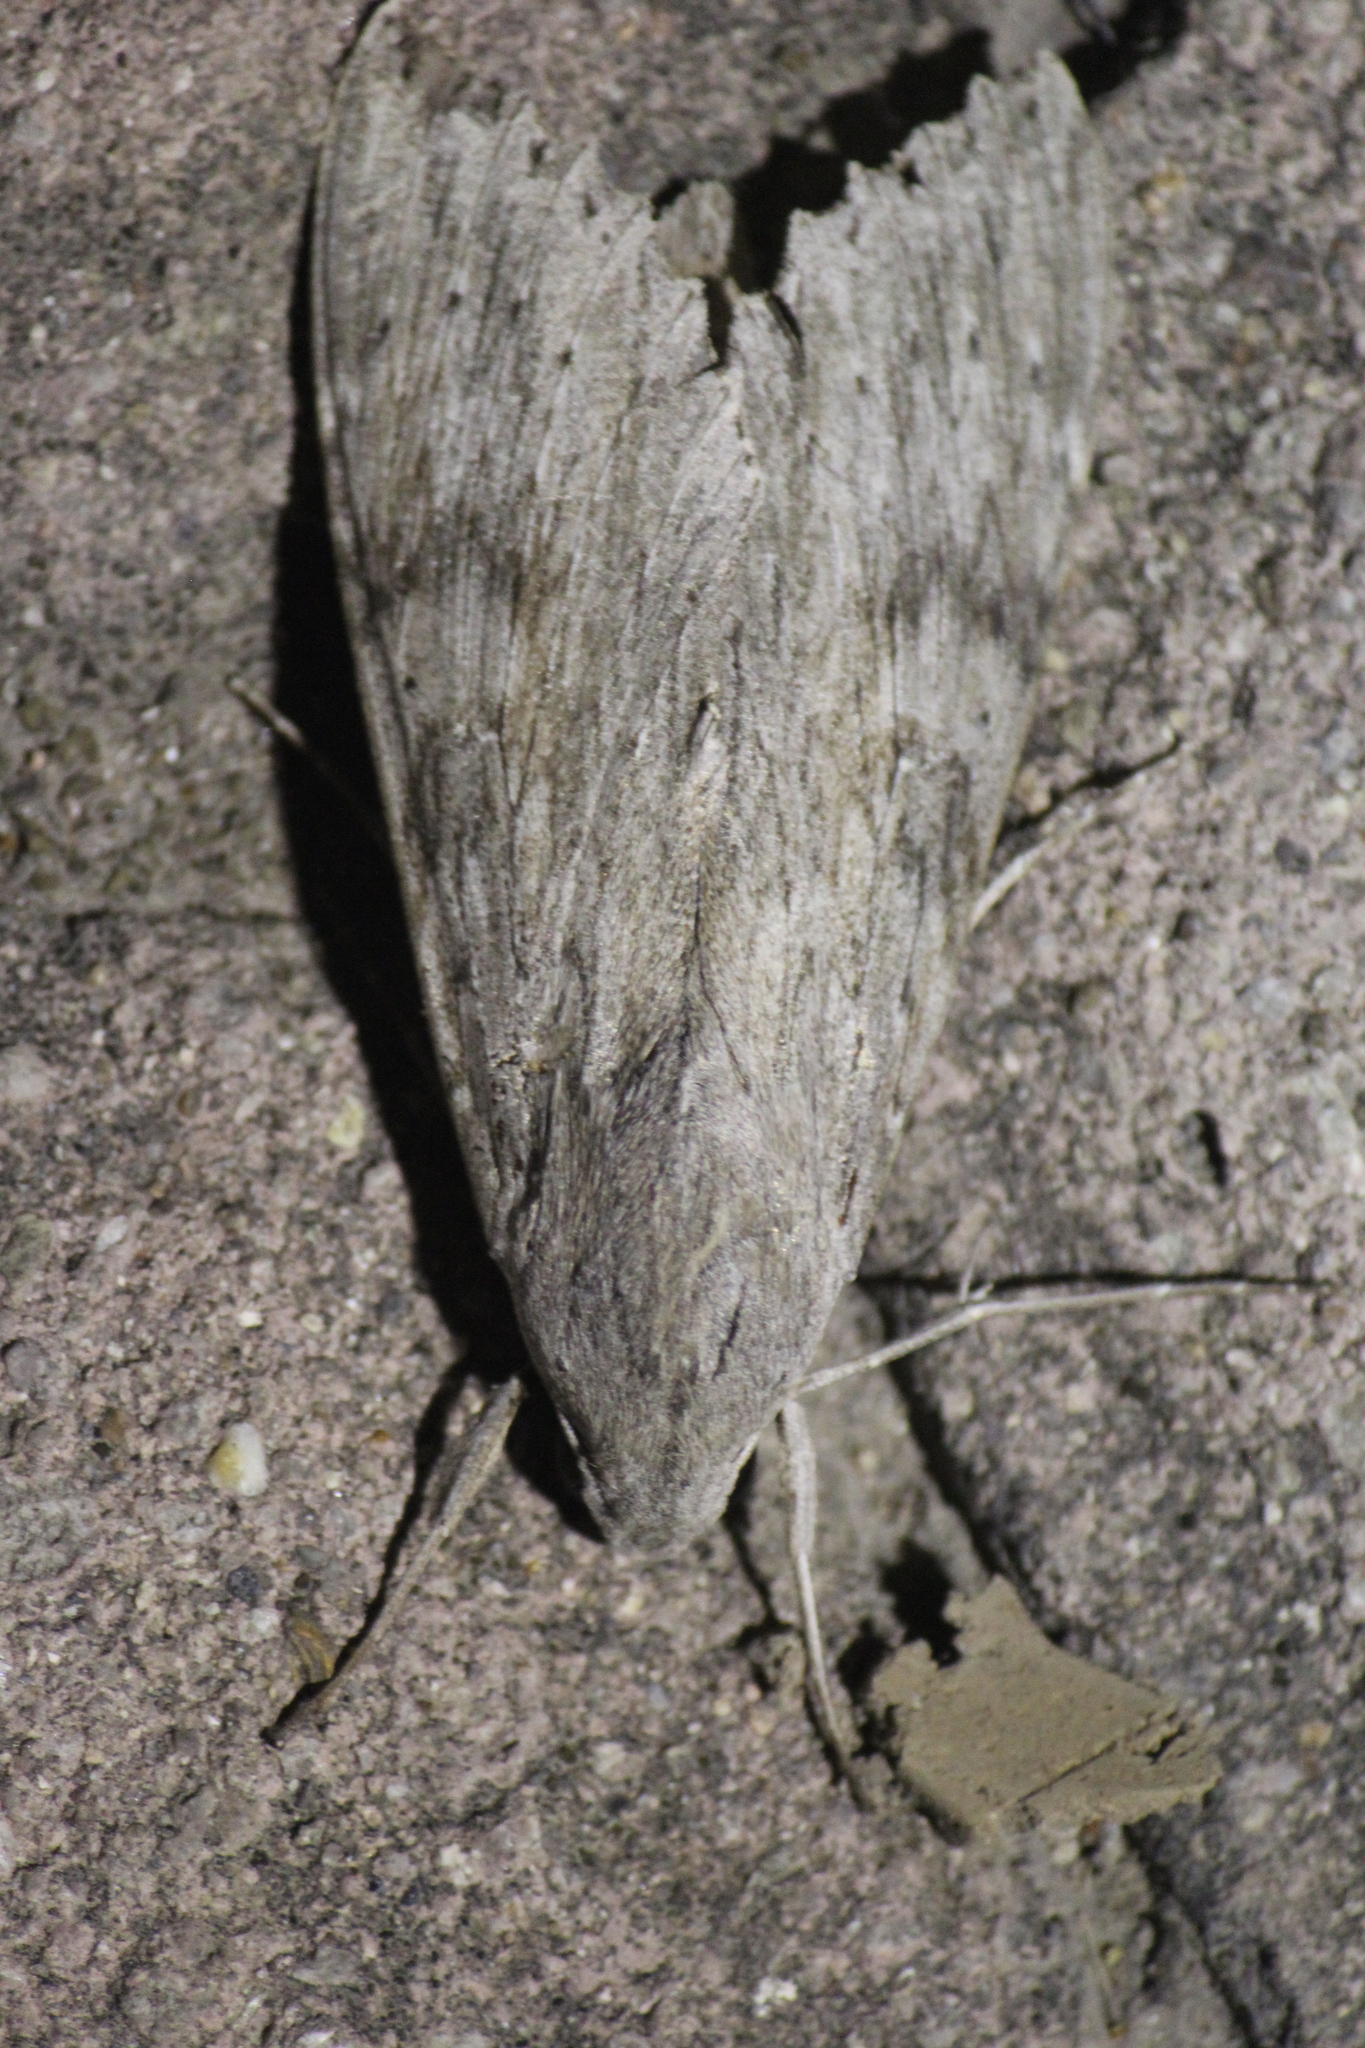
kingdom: Animalia
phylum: Arthropoda
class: Insecta
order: Lepidoptera
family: Sphingidae
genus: Erinnyis
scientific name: Erinnyis ello
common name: Ello sphinx
